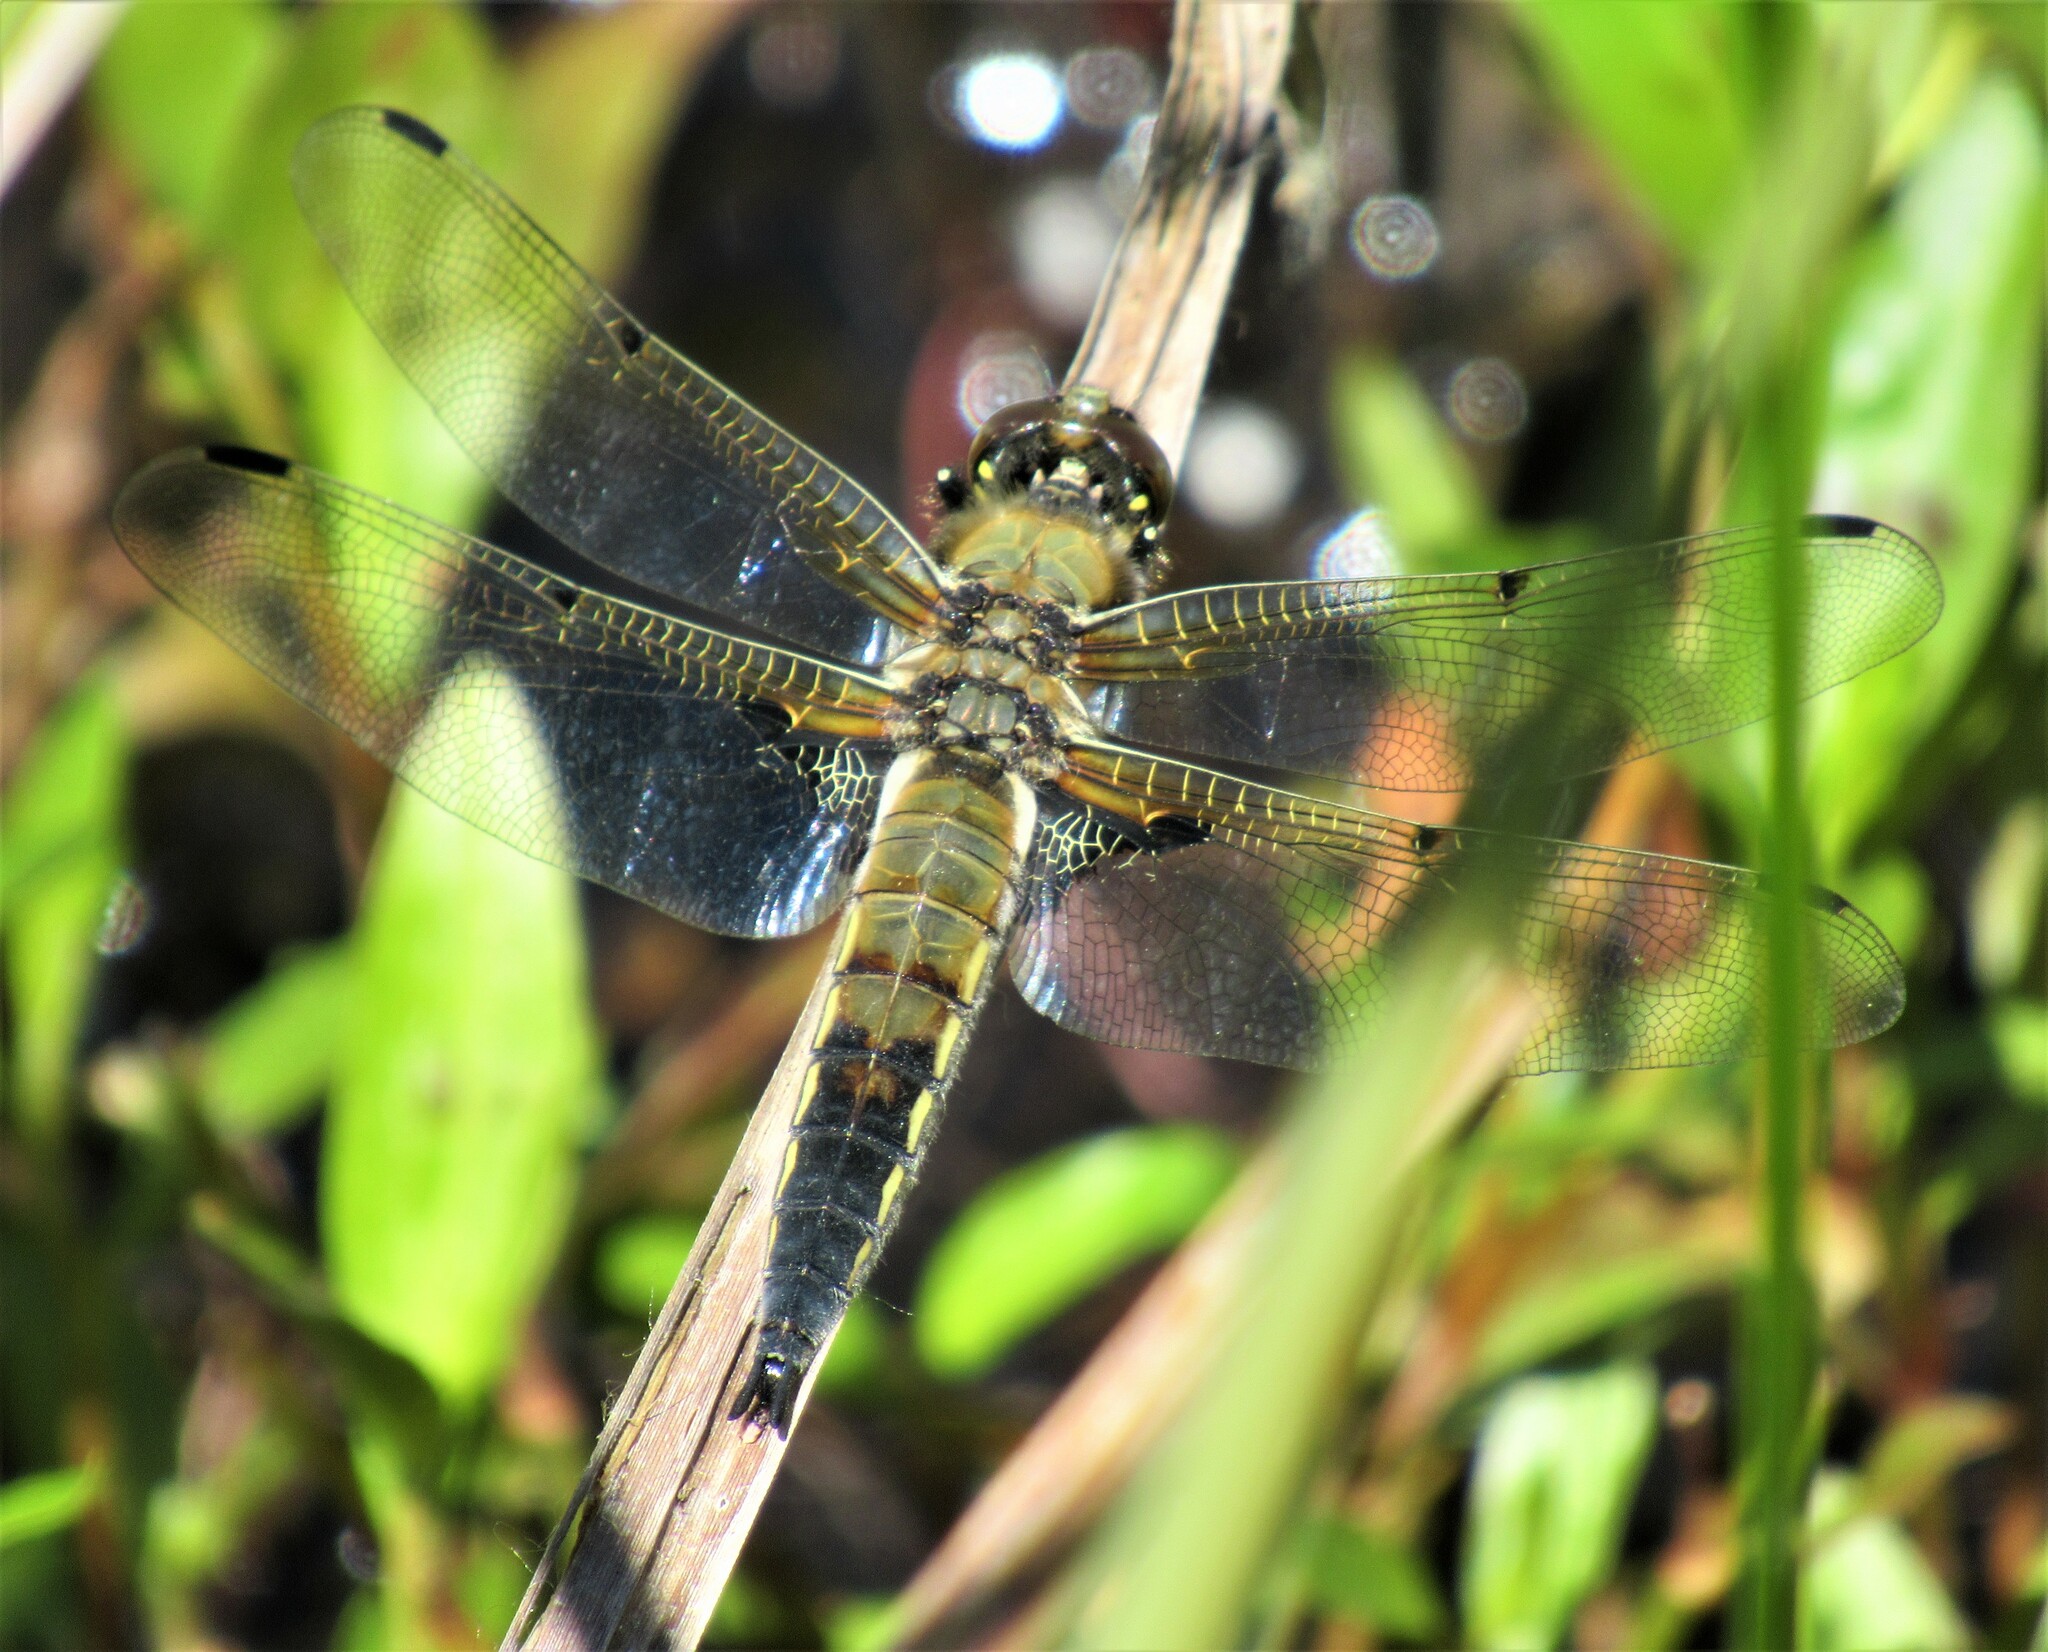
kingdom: Animalia
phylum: Arthropoda
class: Insecta
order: Odonata
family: Libellulidae
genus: Libellula
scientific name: Libellula quadrimaculata
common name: Four-spotted chaser
